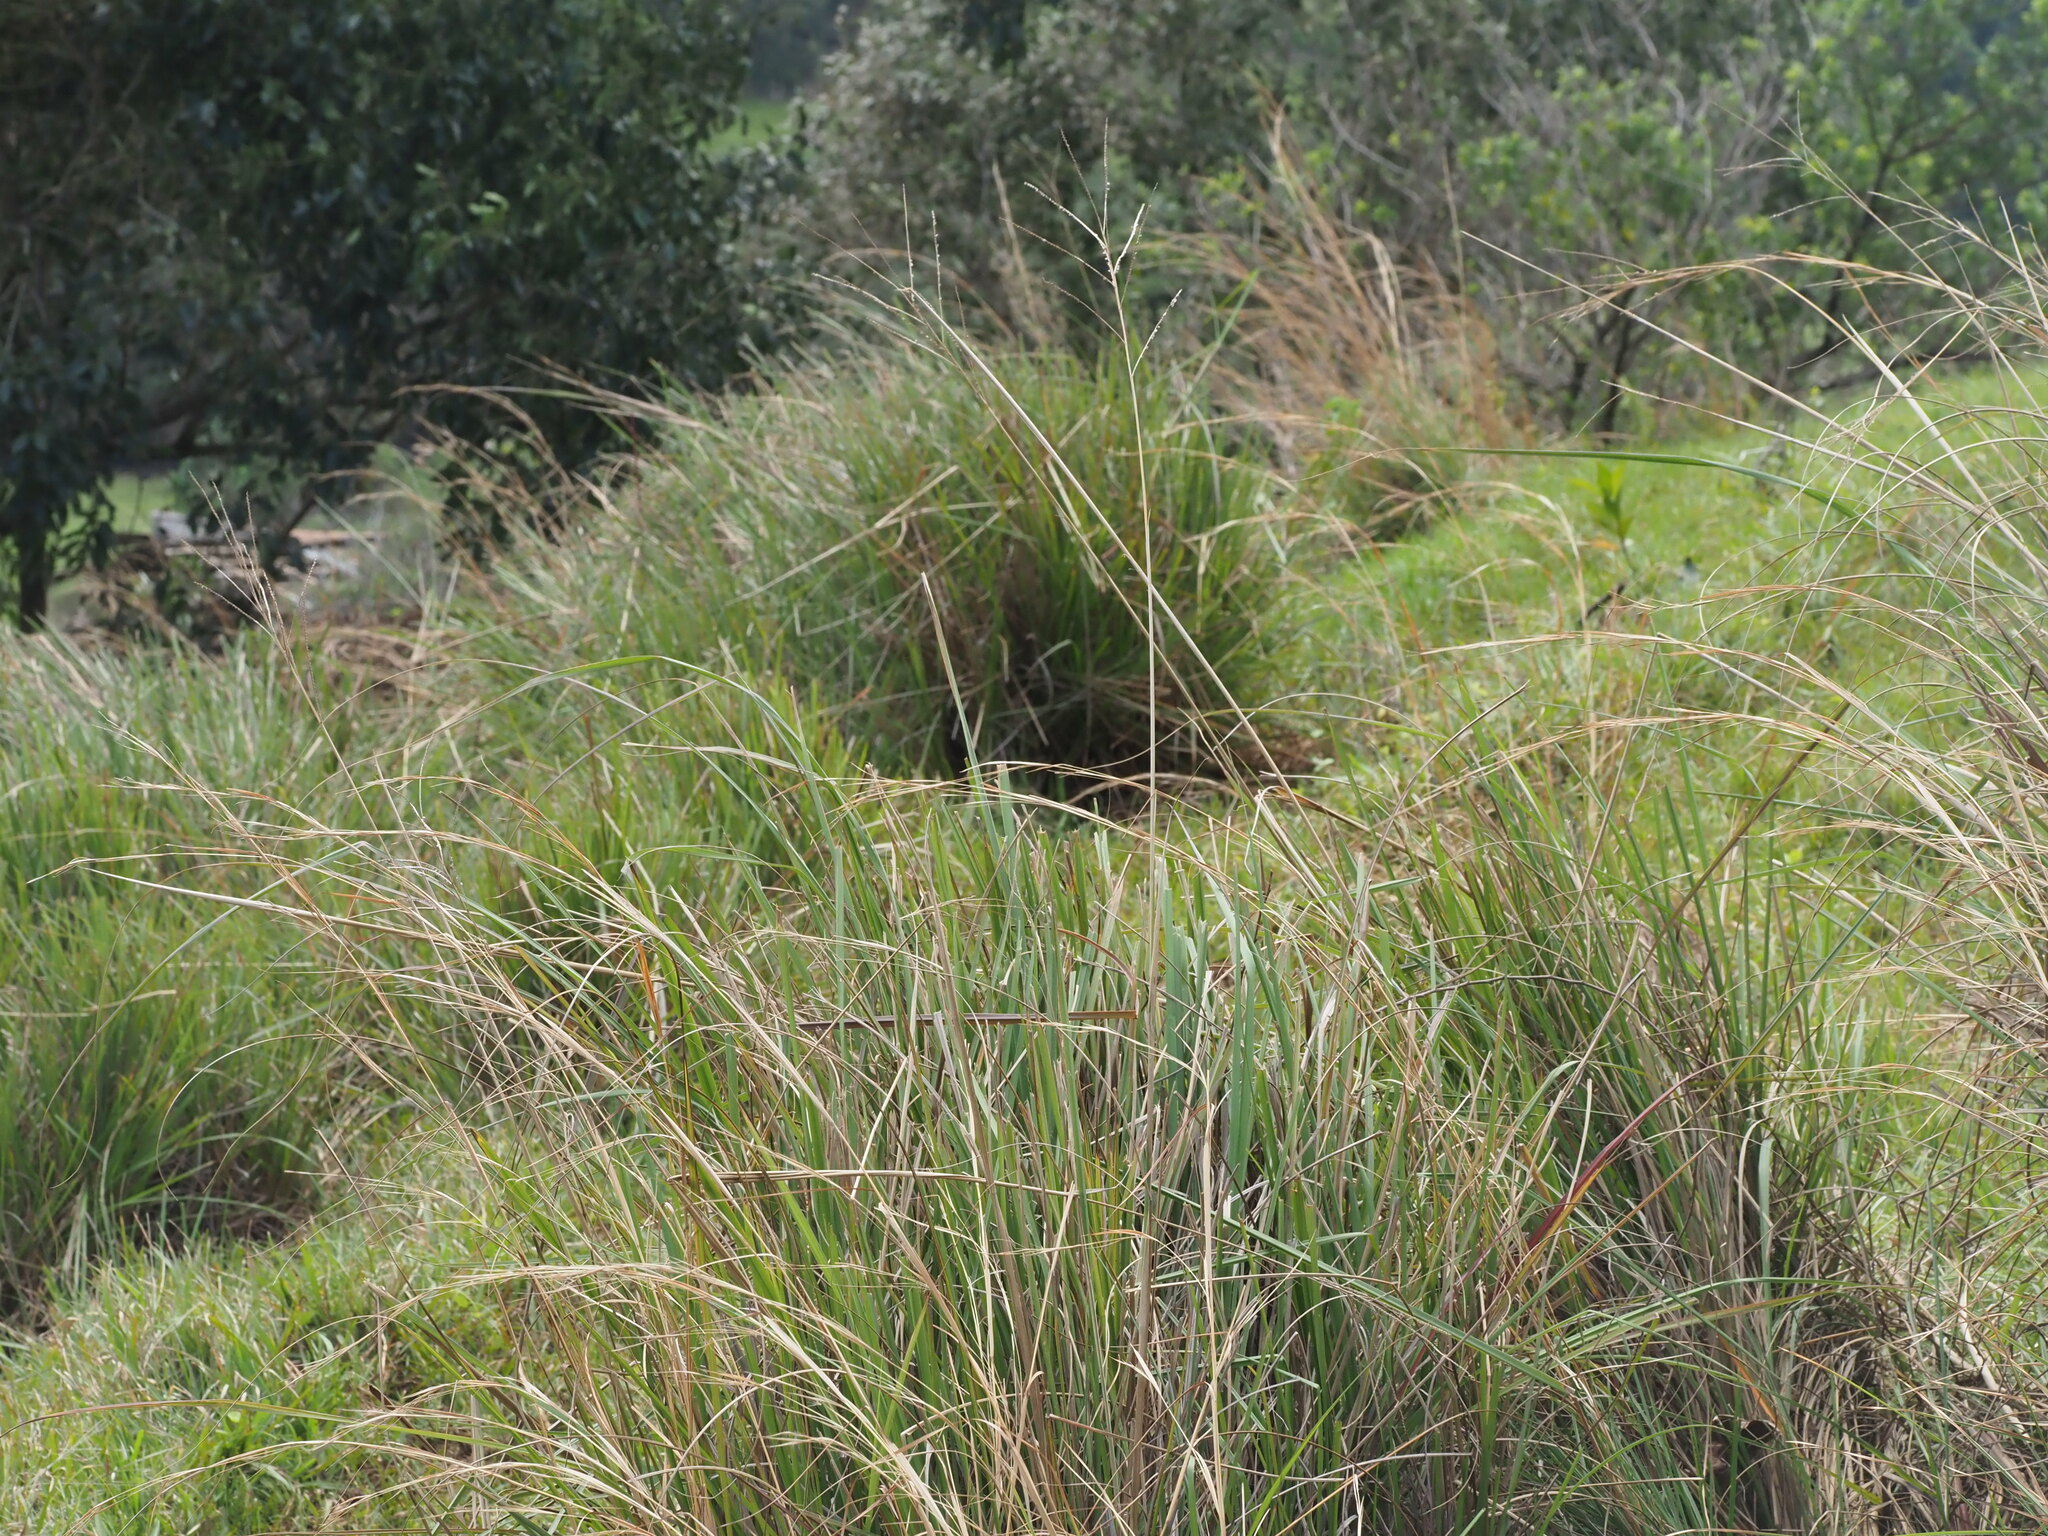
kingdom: Plantae
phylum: Tracheophyta
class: Liliopsida
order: Poales
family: Poaceae
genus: Paspalum
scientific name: Paspalum arundinaceum
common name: Thick ditch crowngrass
